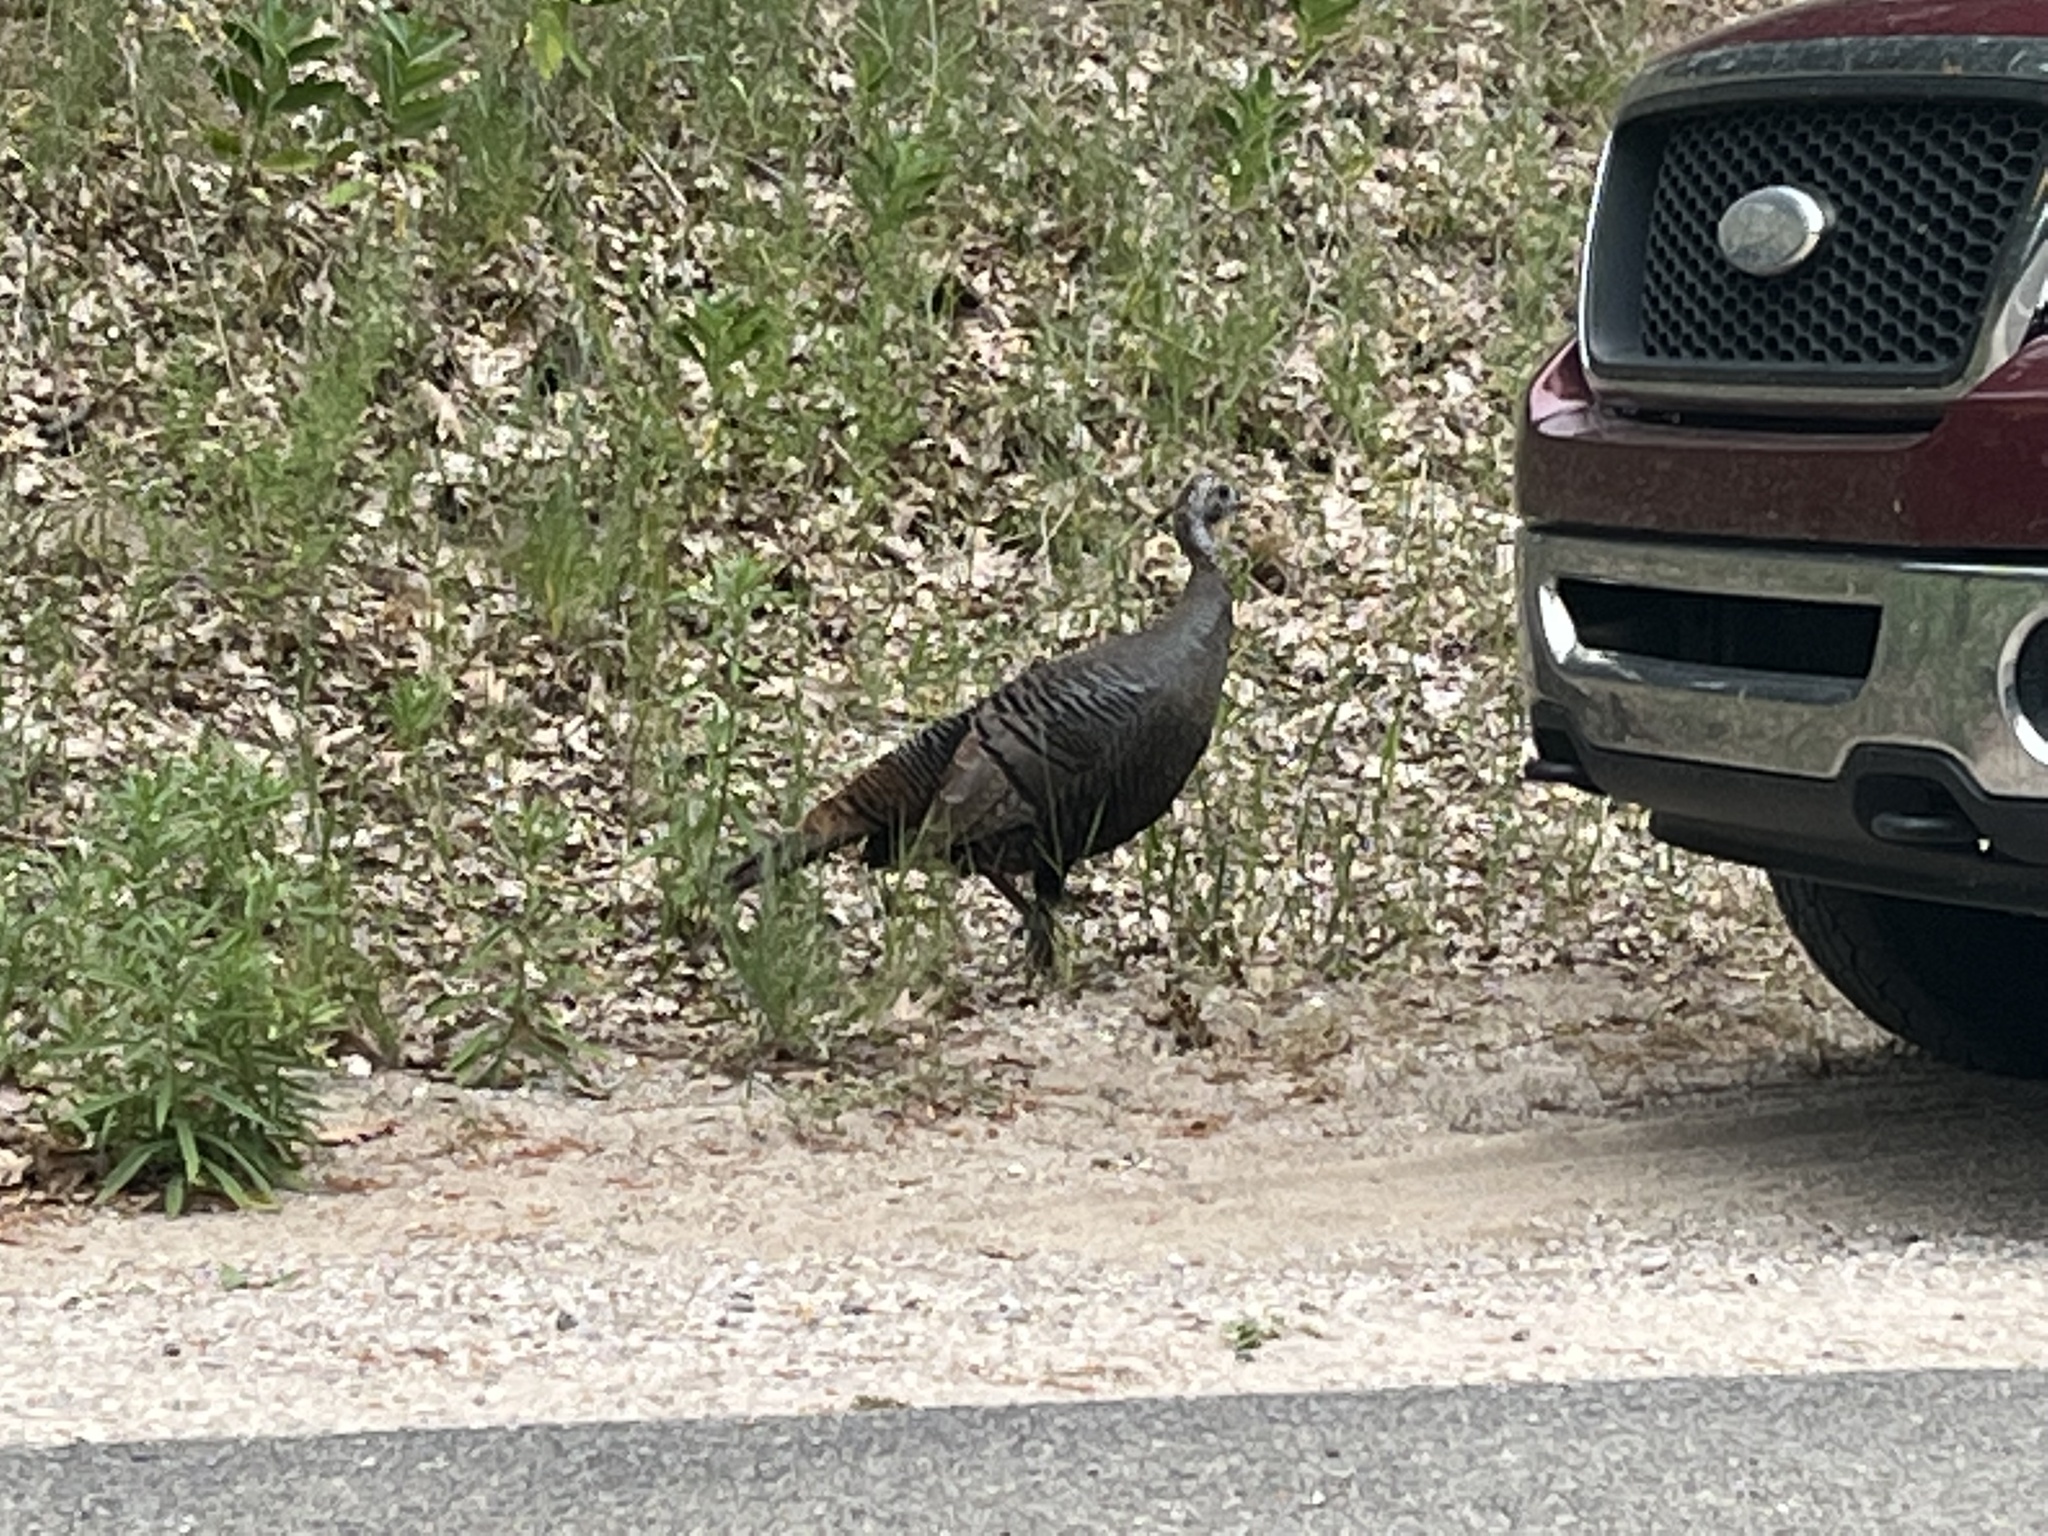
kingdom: Animalia
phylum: Chordata
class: Aves
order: Galliformes
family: Phasianidae
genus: Meleagris
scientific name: Meleagris gallopavo
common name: Wild turkey
